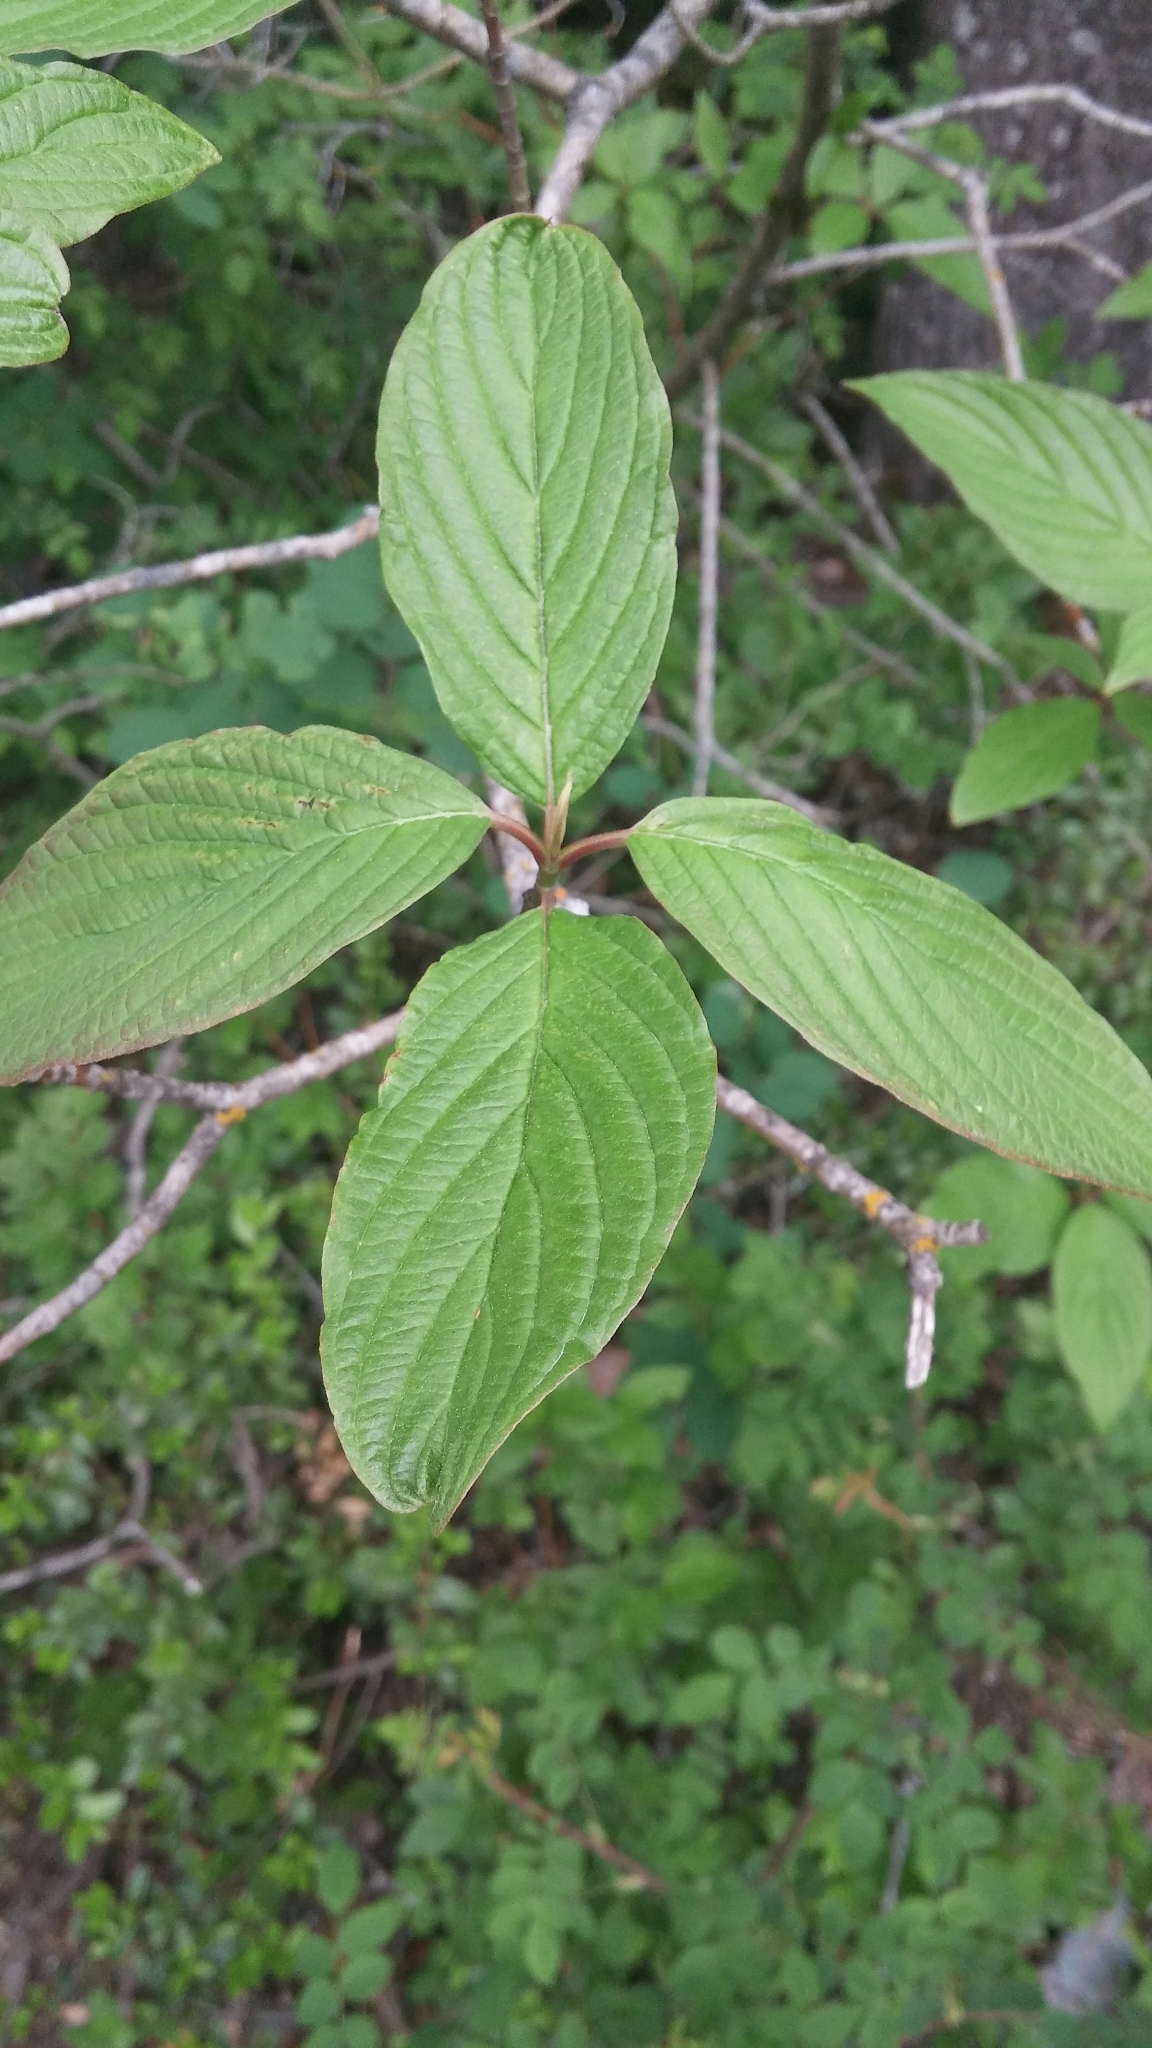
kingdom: Plantae
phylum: Tracheophyta
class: Magnoliopsida
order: Cornales
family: Cornaceae
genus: Cornus
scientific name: Cornus sericea
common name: Red-osier dogwood
